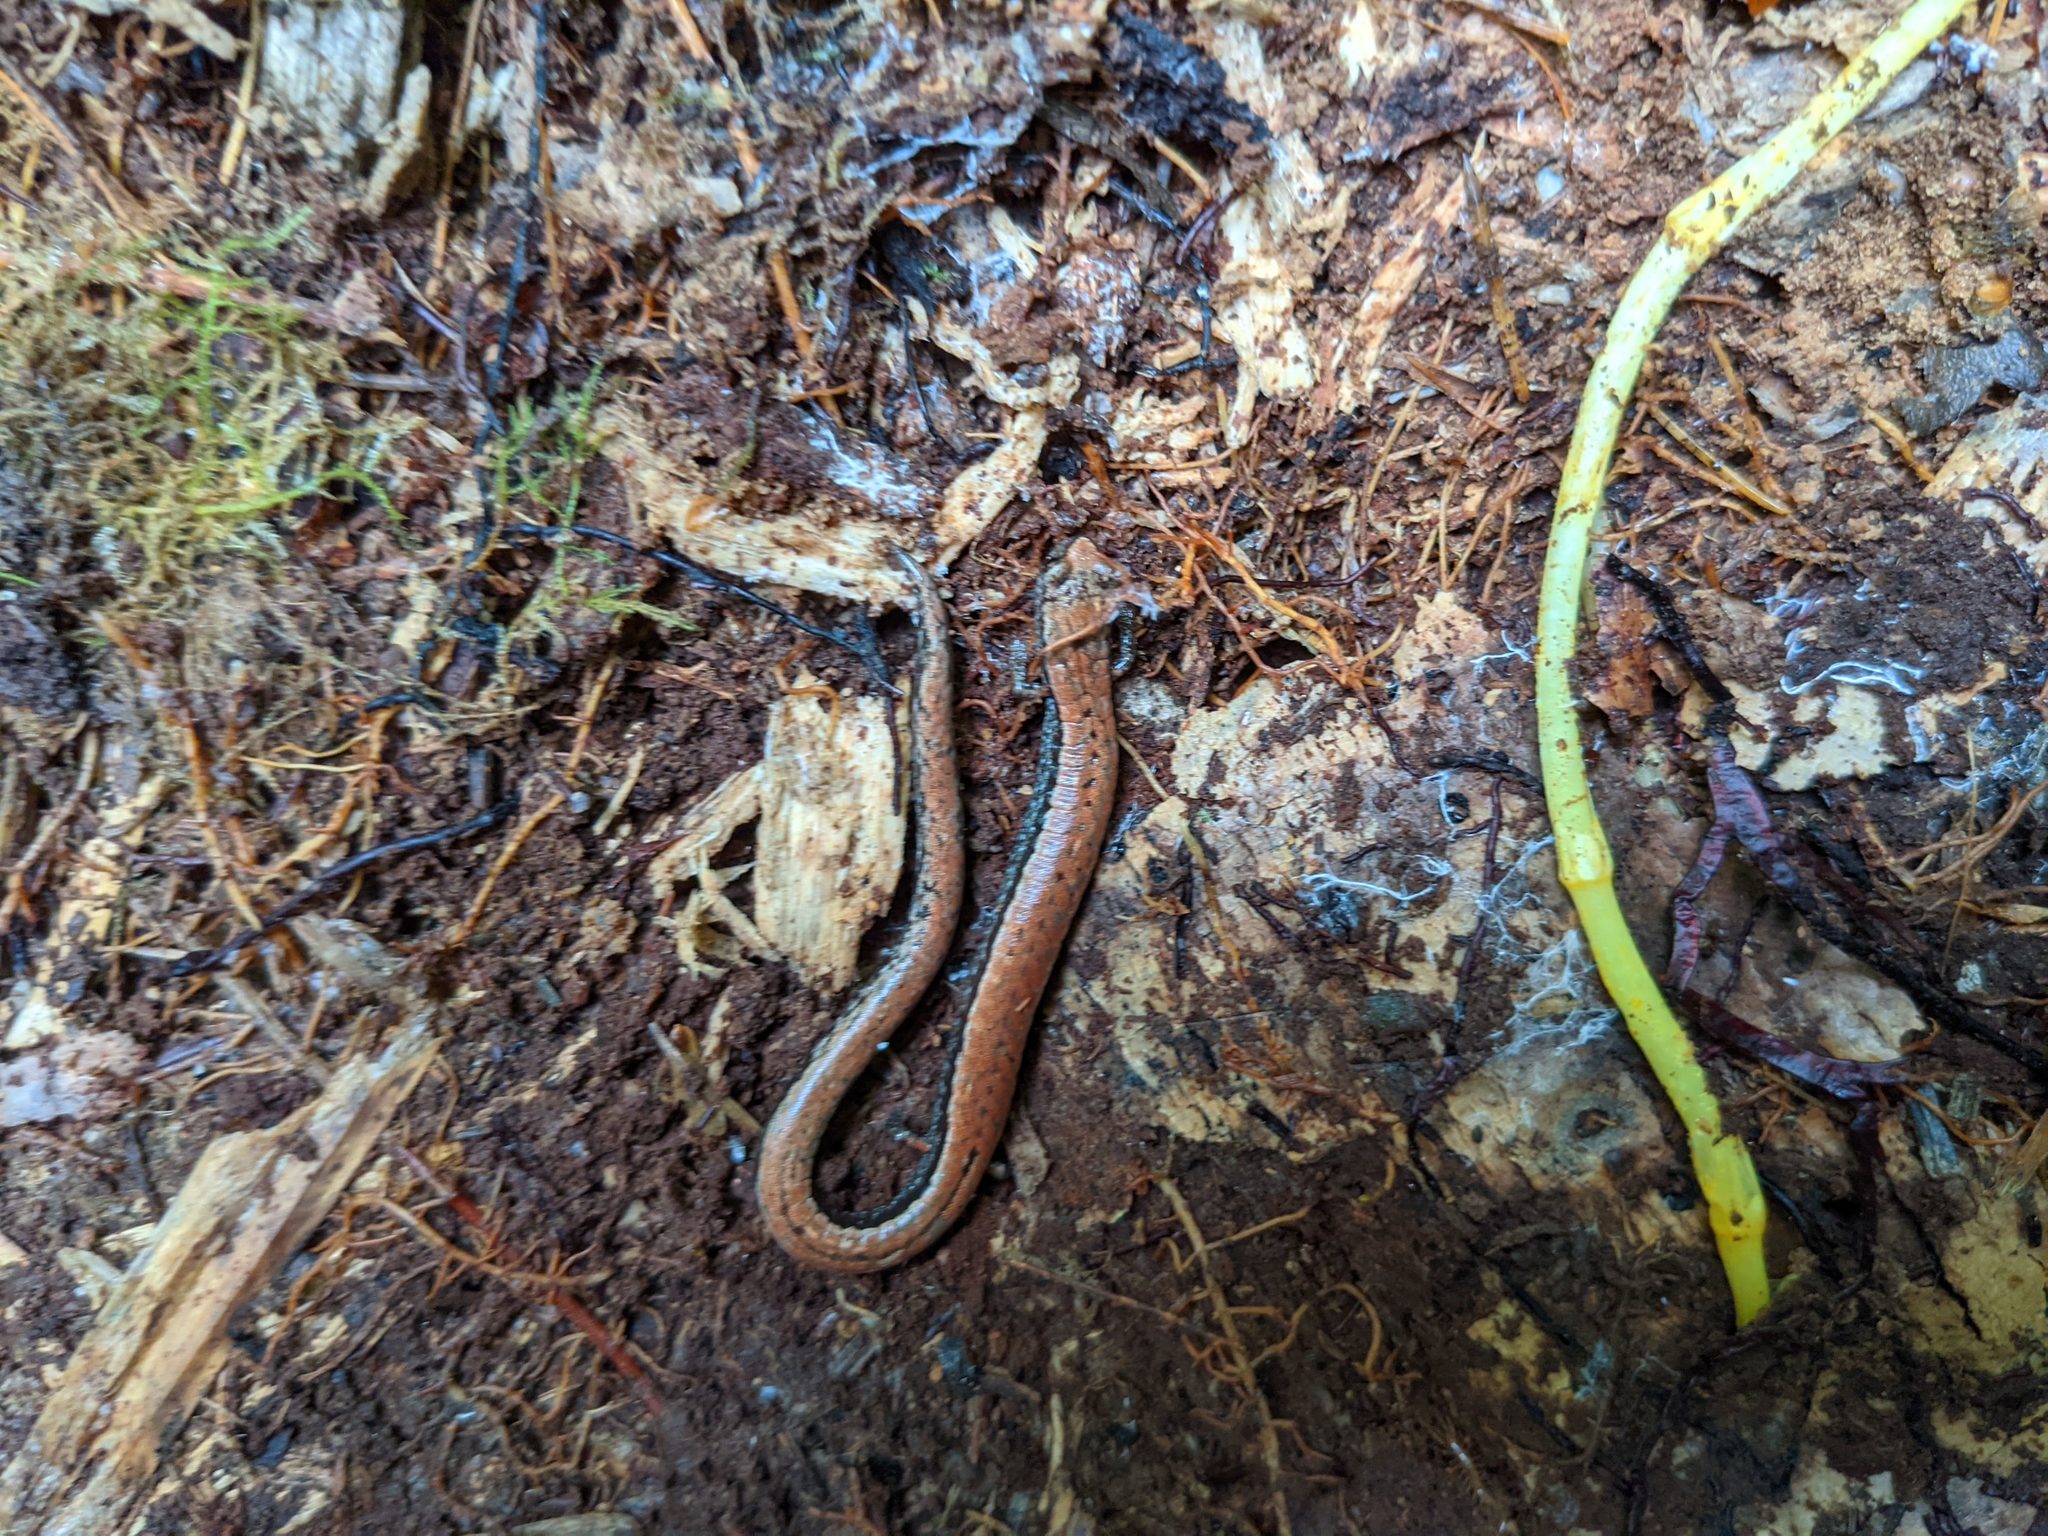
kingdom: Animalia
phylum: Chordata
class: Amphibia
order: Caudata
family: Plethodontidae
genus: Batrachoseps
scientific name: Batrachoseps attenuatus
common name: California slender salamander
